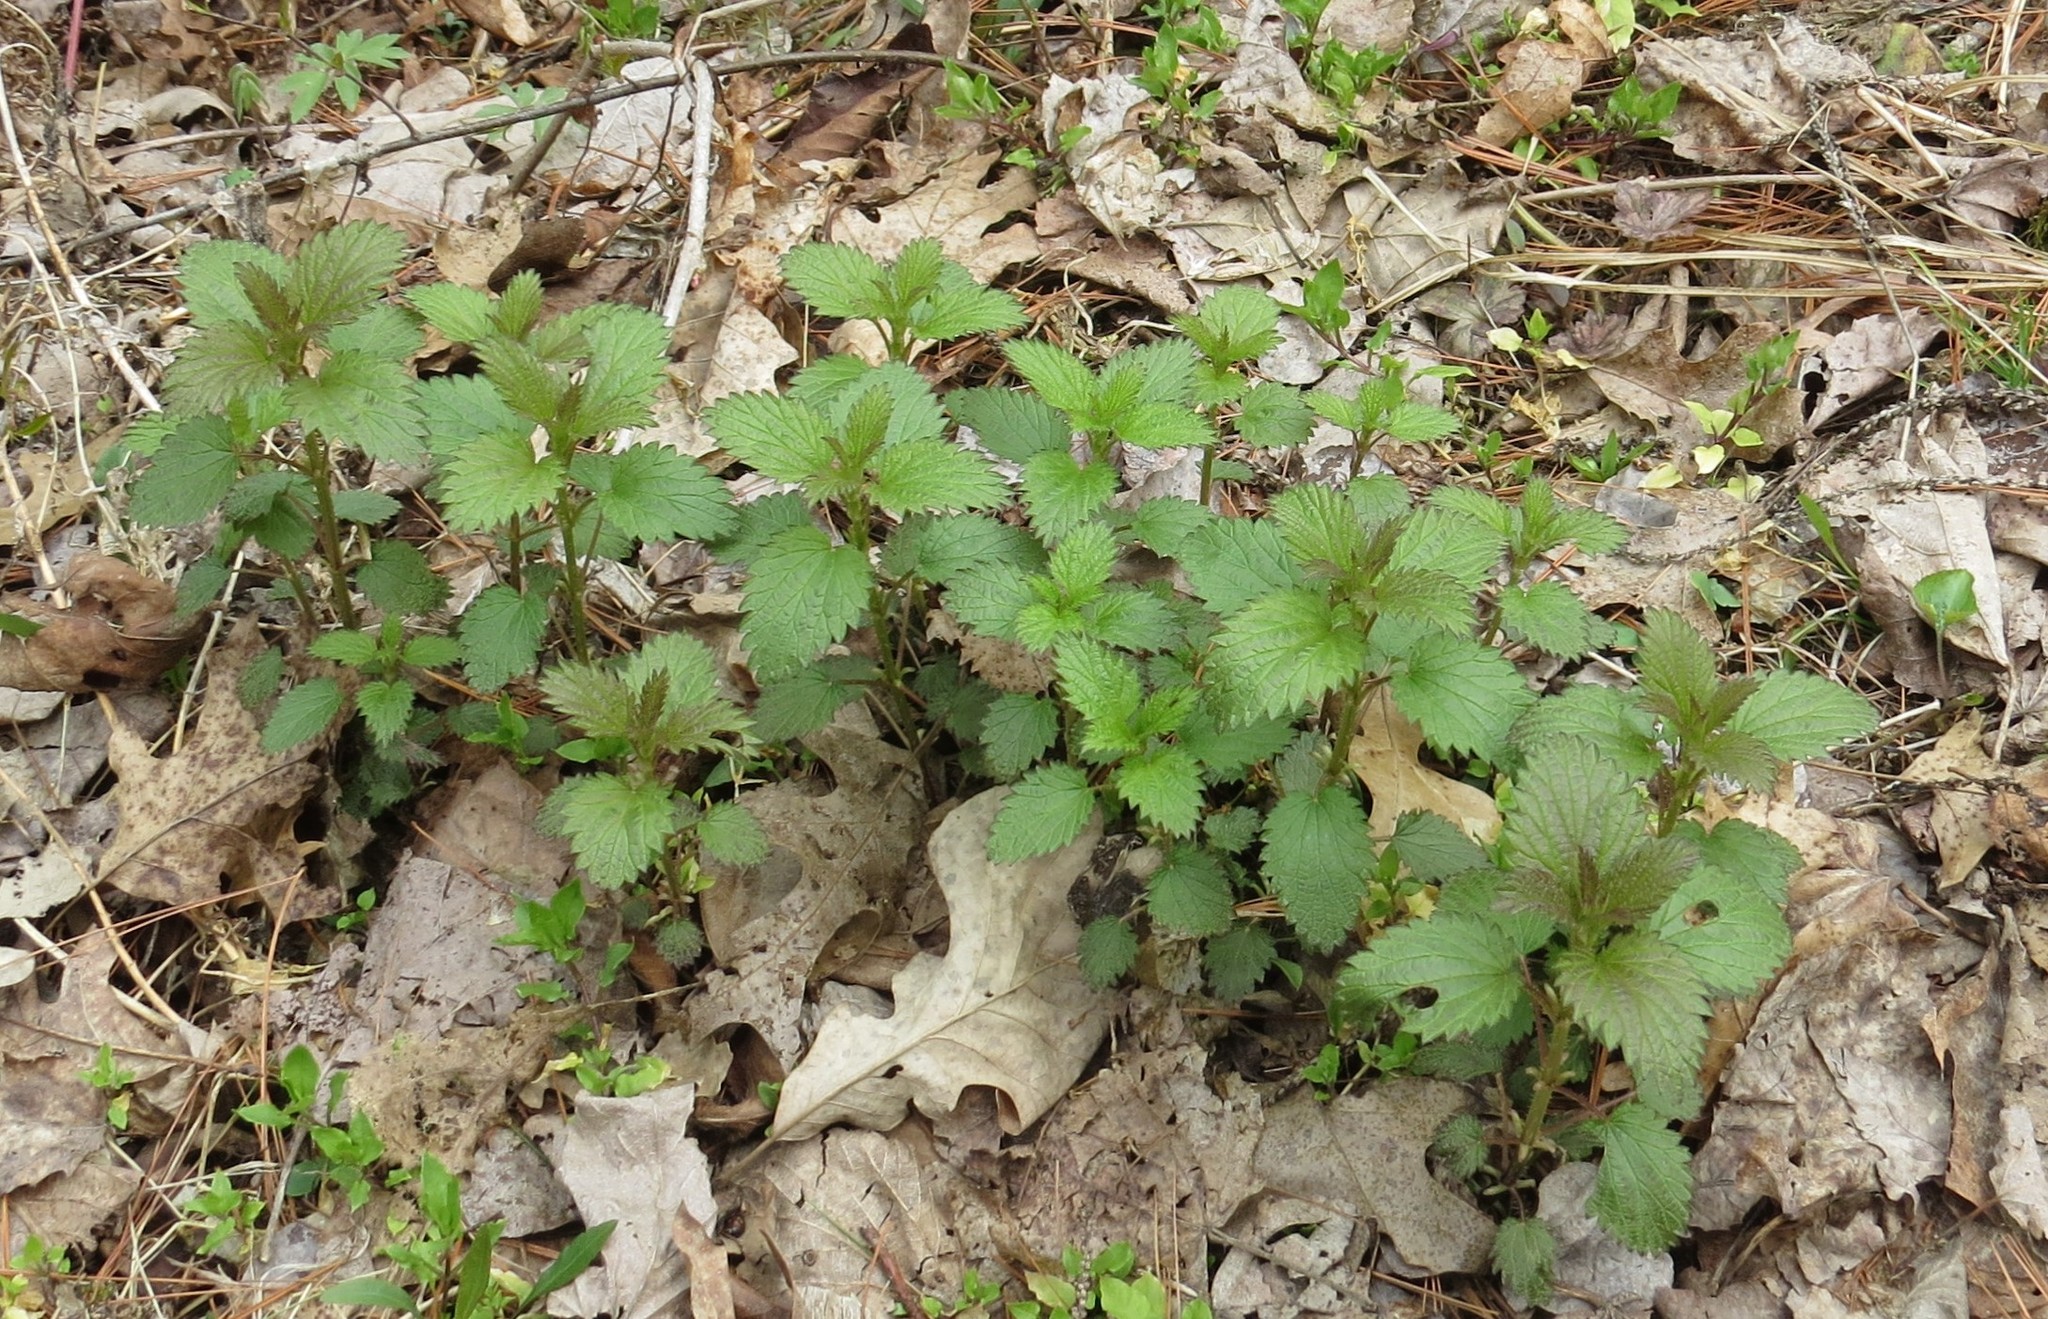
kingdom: Plantae
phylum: Tracheophyta
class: Magnoliopsida
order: Rosales
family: Urticaceae
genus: Urtica
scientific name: Urtica dioica
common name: Common nettle
